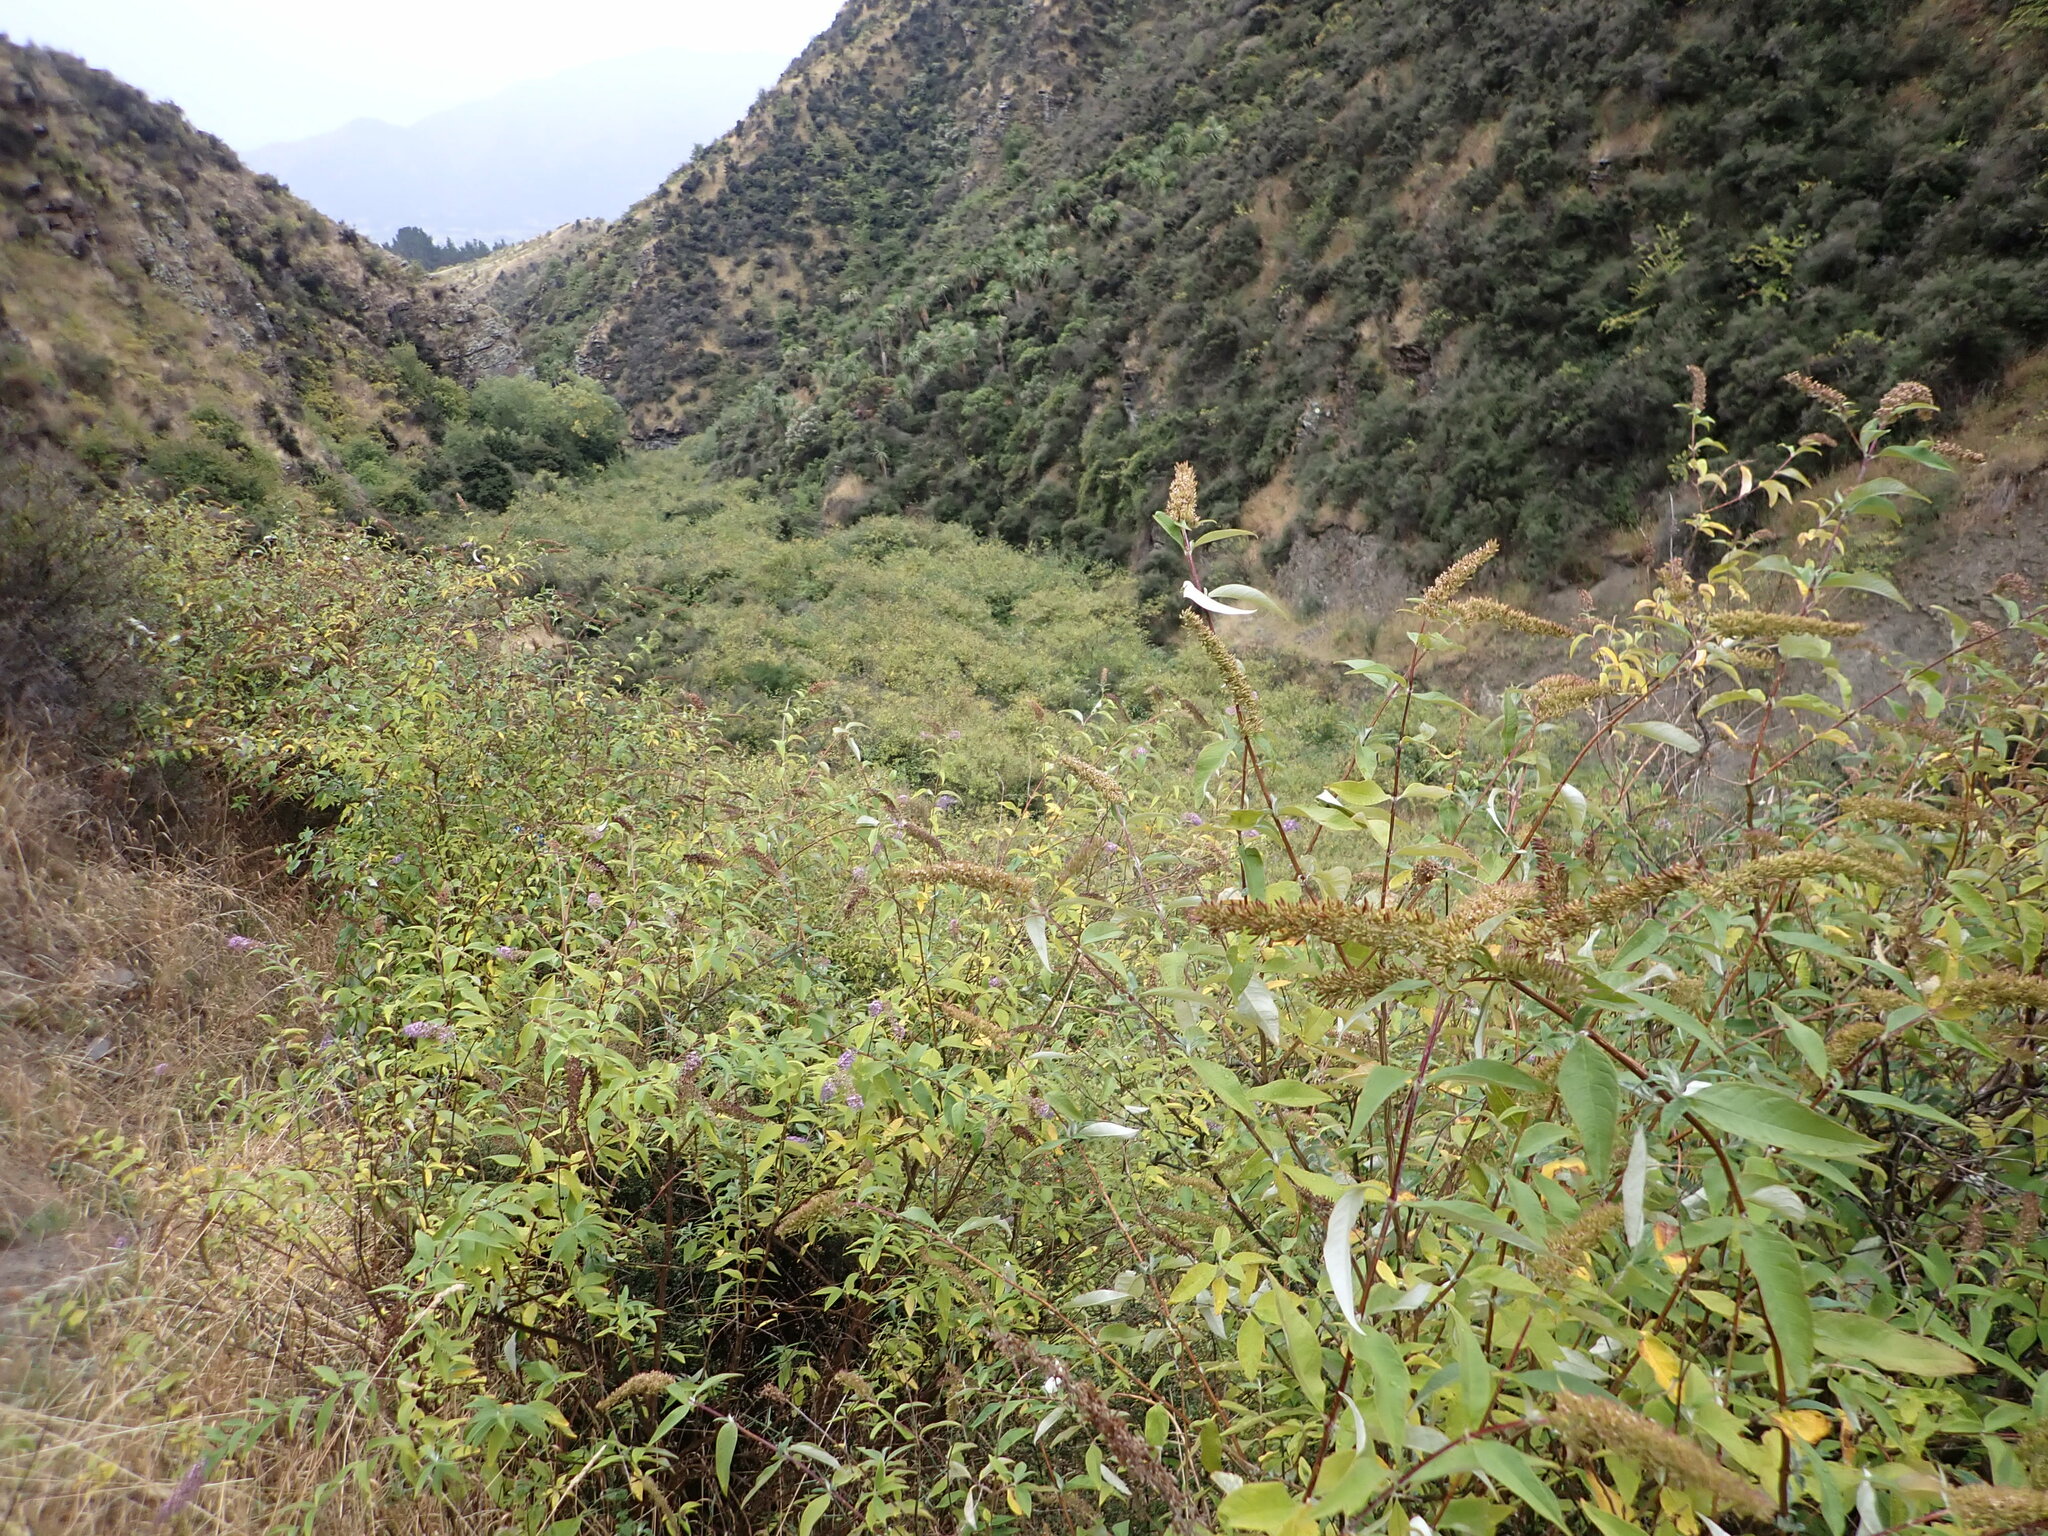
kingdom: Plantae
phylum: Tracheophyta
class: Magnoliopsida
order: Lamiales
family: Scrophulariaceae
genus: Buddleja
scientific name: Buddleja davidii
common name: Butterfly-bush
